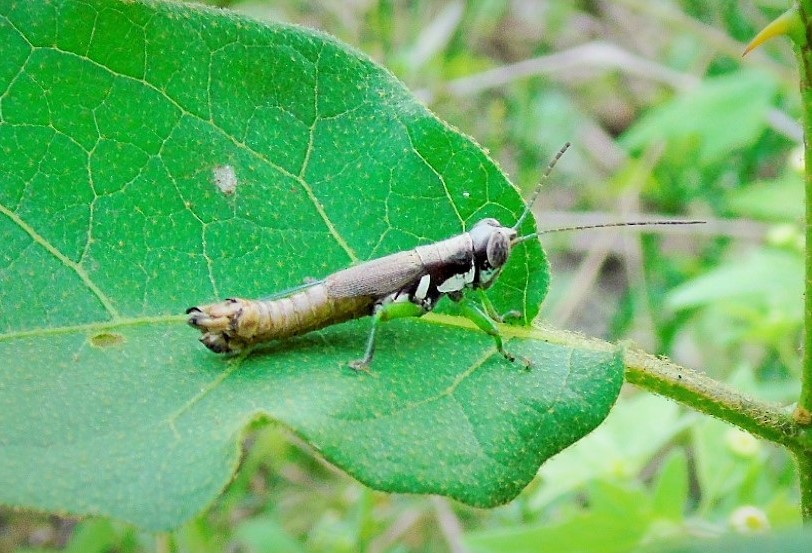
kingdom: Animalia
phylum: Arthropoda
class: Insecta
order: Orthoptera
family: Acrididae
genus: Proctolabus
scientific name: Proctolabus cerciatus
